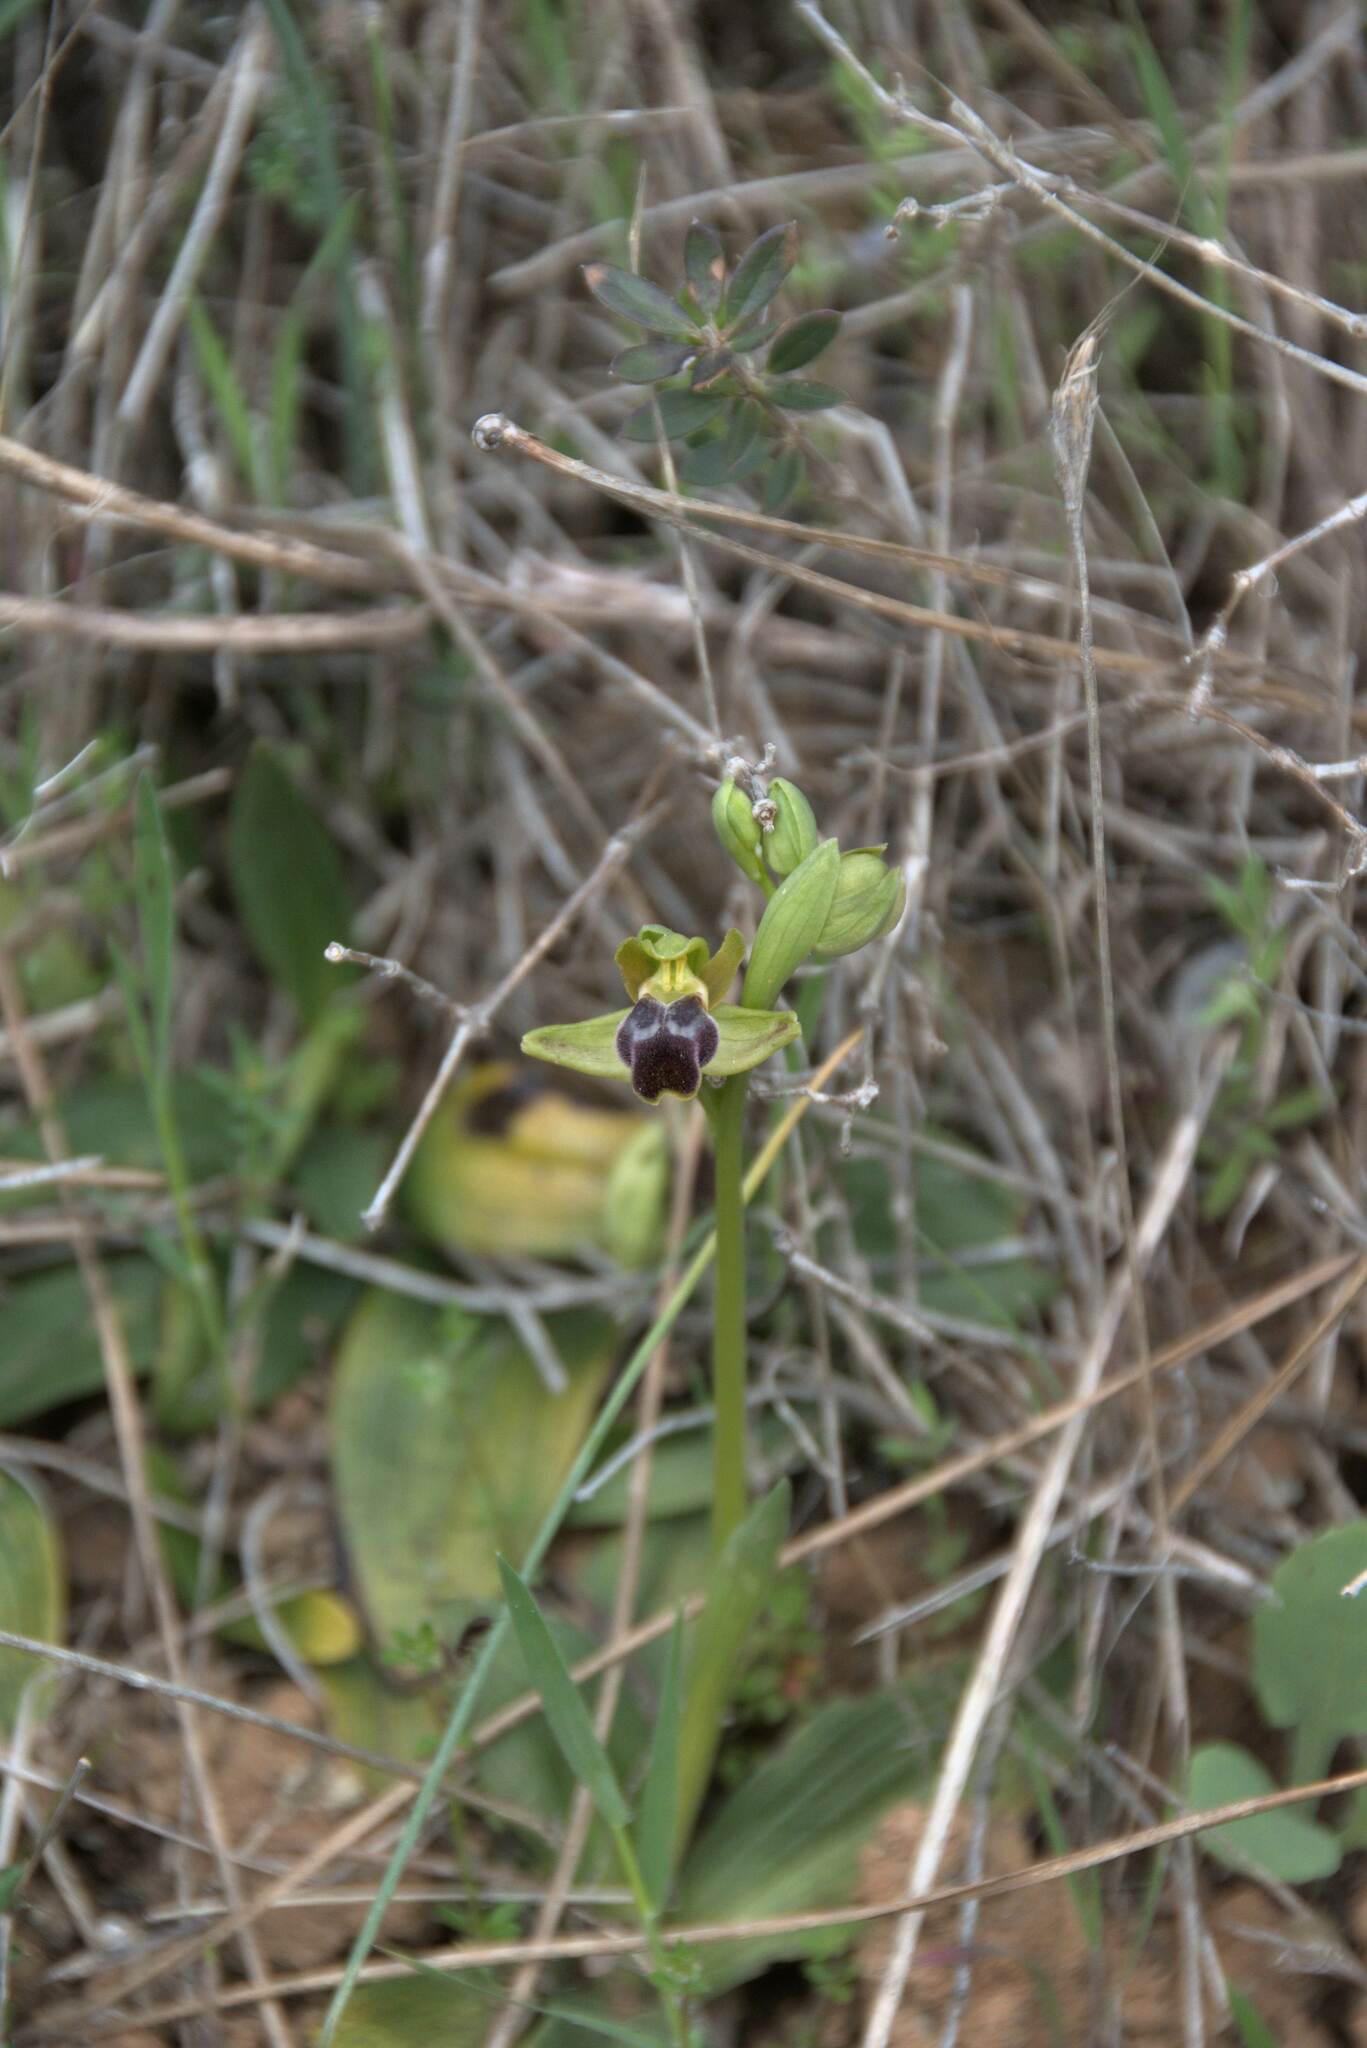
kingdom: Plantae
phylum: Tracheophyta
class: Liliopsida
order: Asparagales
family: Orchidaceae
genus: Ophrys
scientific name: Ophrys fusca
